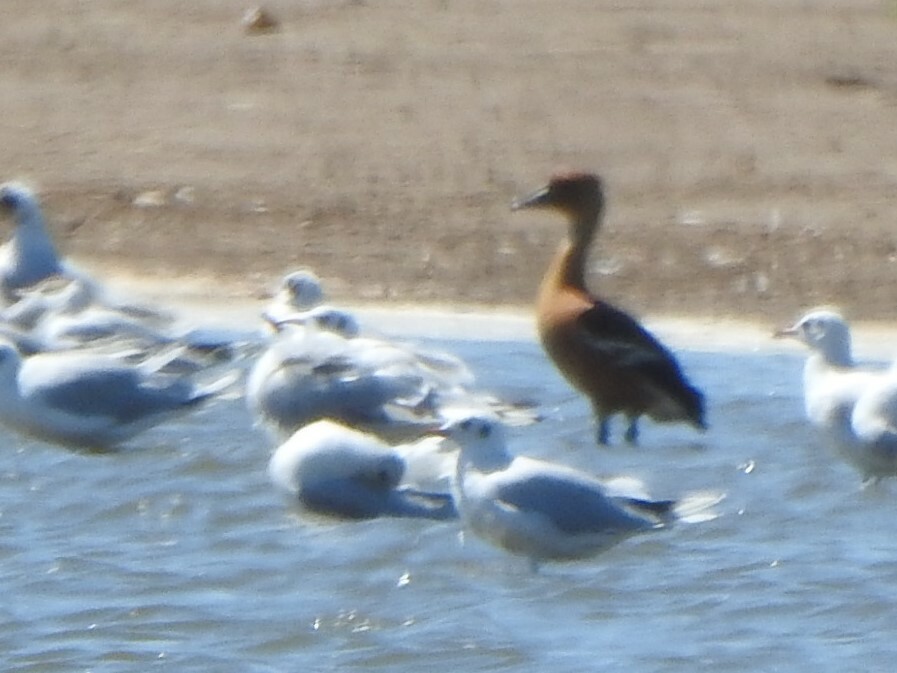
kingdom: Animalia
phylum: Chordata
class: Aves
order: Anseriformes
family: Anatidae
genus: Dendrocygna
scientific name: Dendrocygna bicolor
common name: Fulvous whistling duck
